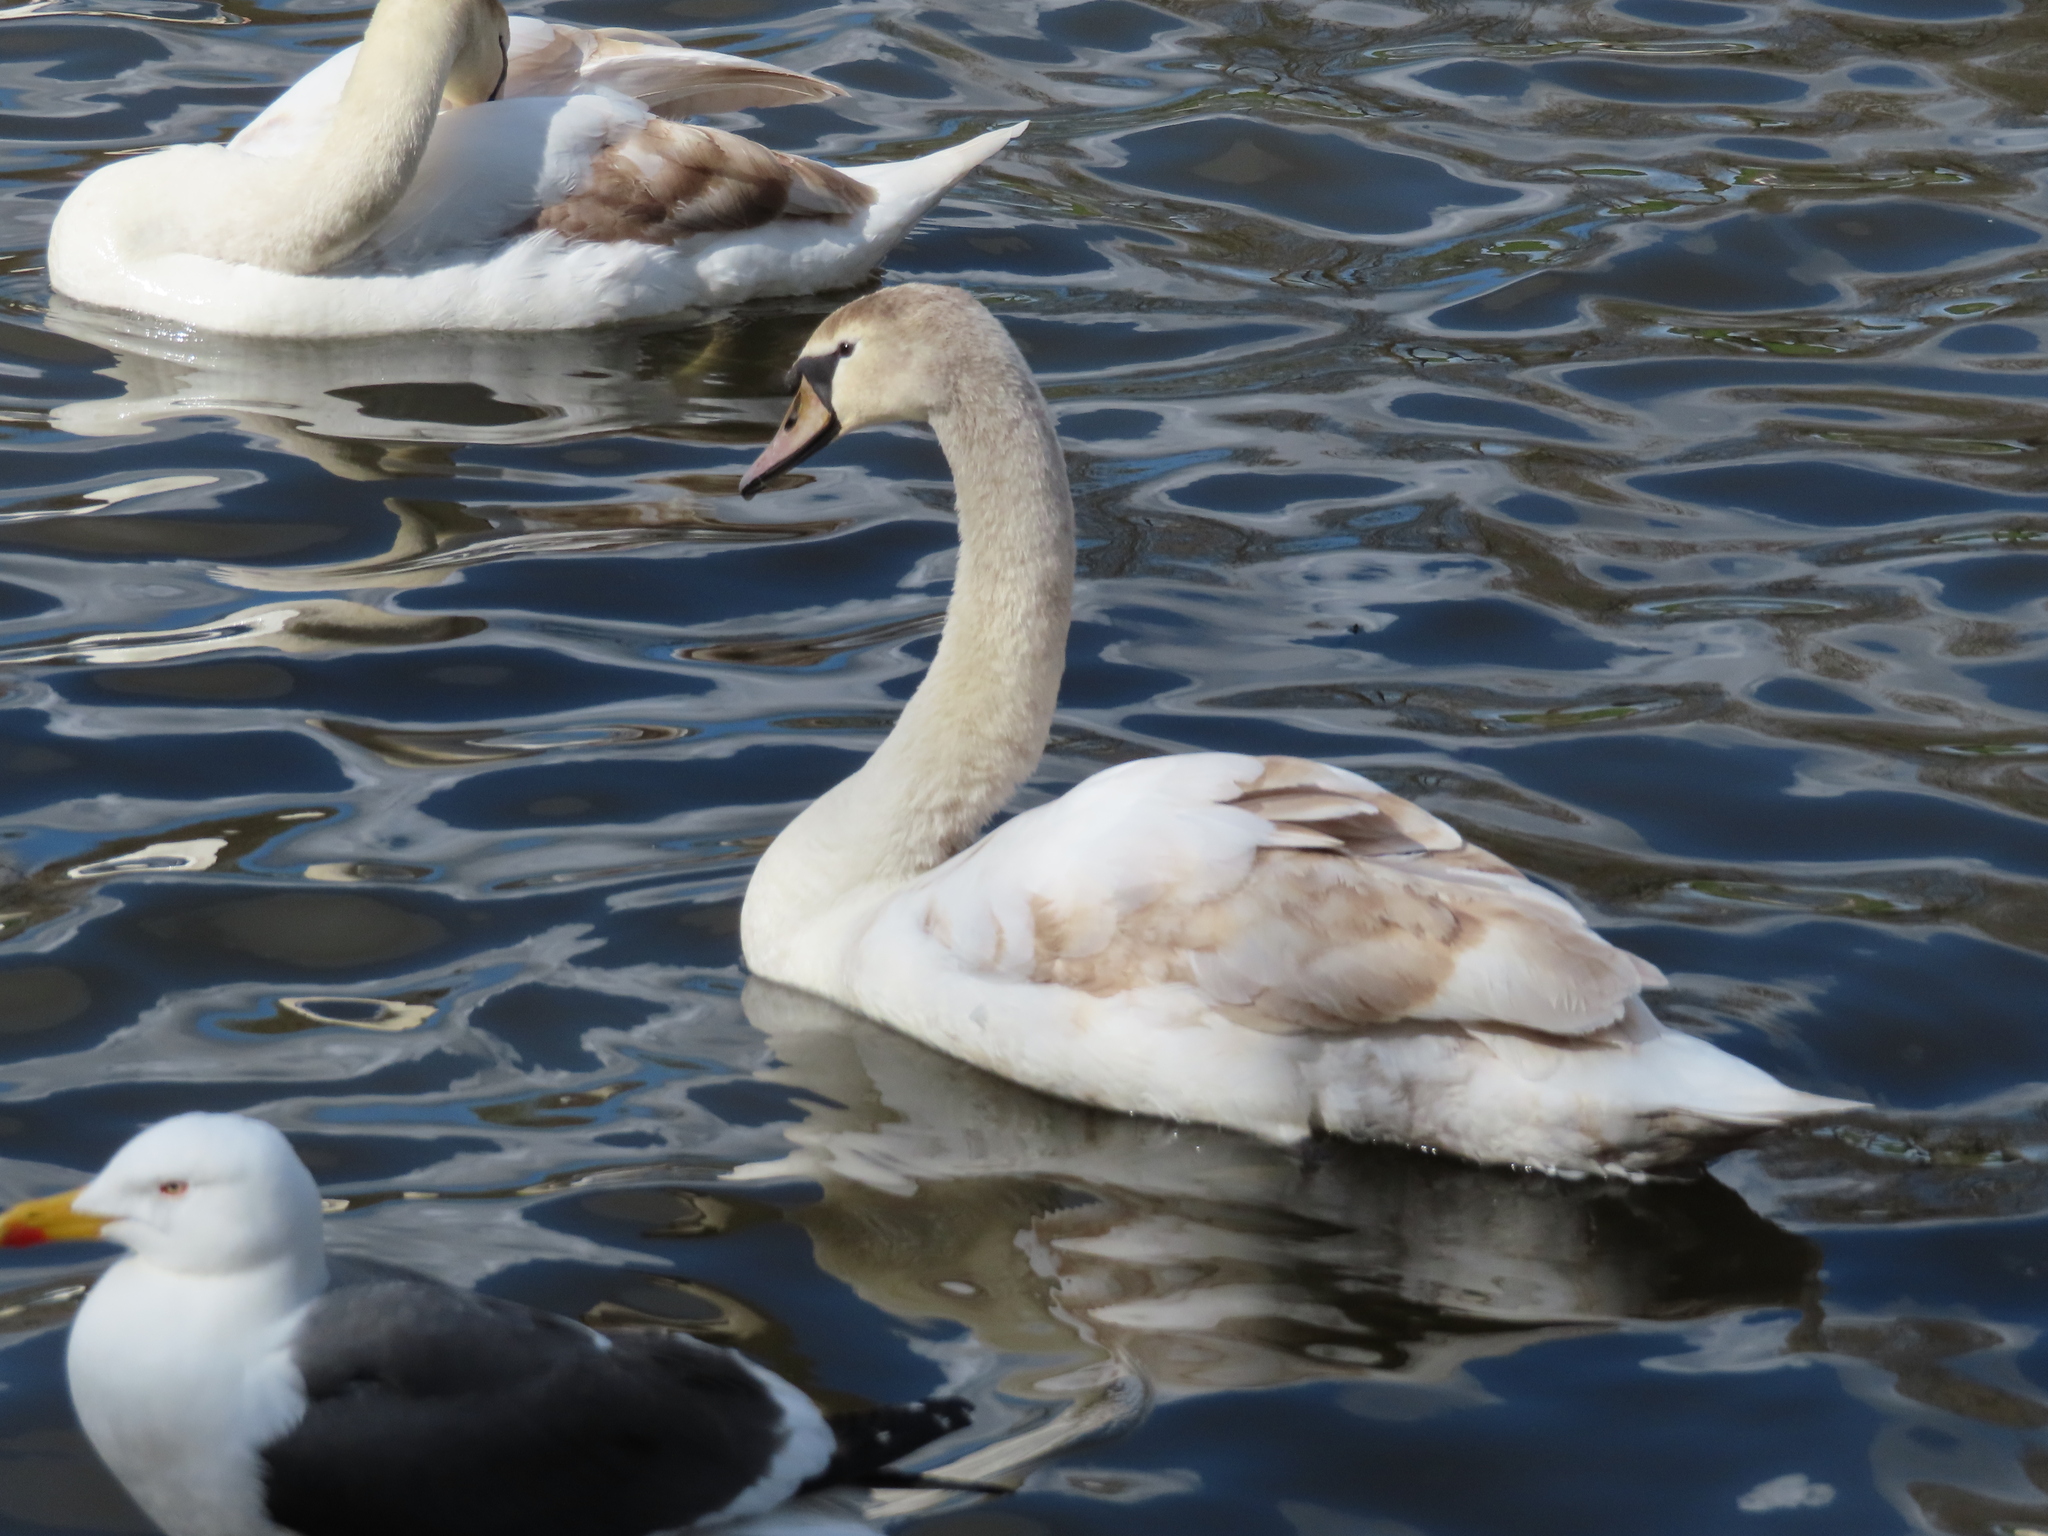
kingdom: Animalia
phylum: Chordata
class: Aves
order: Anseriformes
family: Anatidae
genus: Cygnus
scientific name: Cygnus olor
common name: Mute swan
